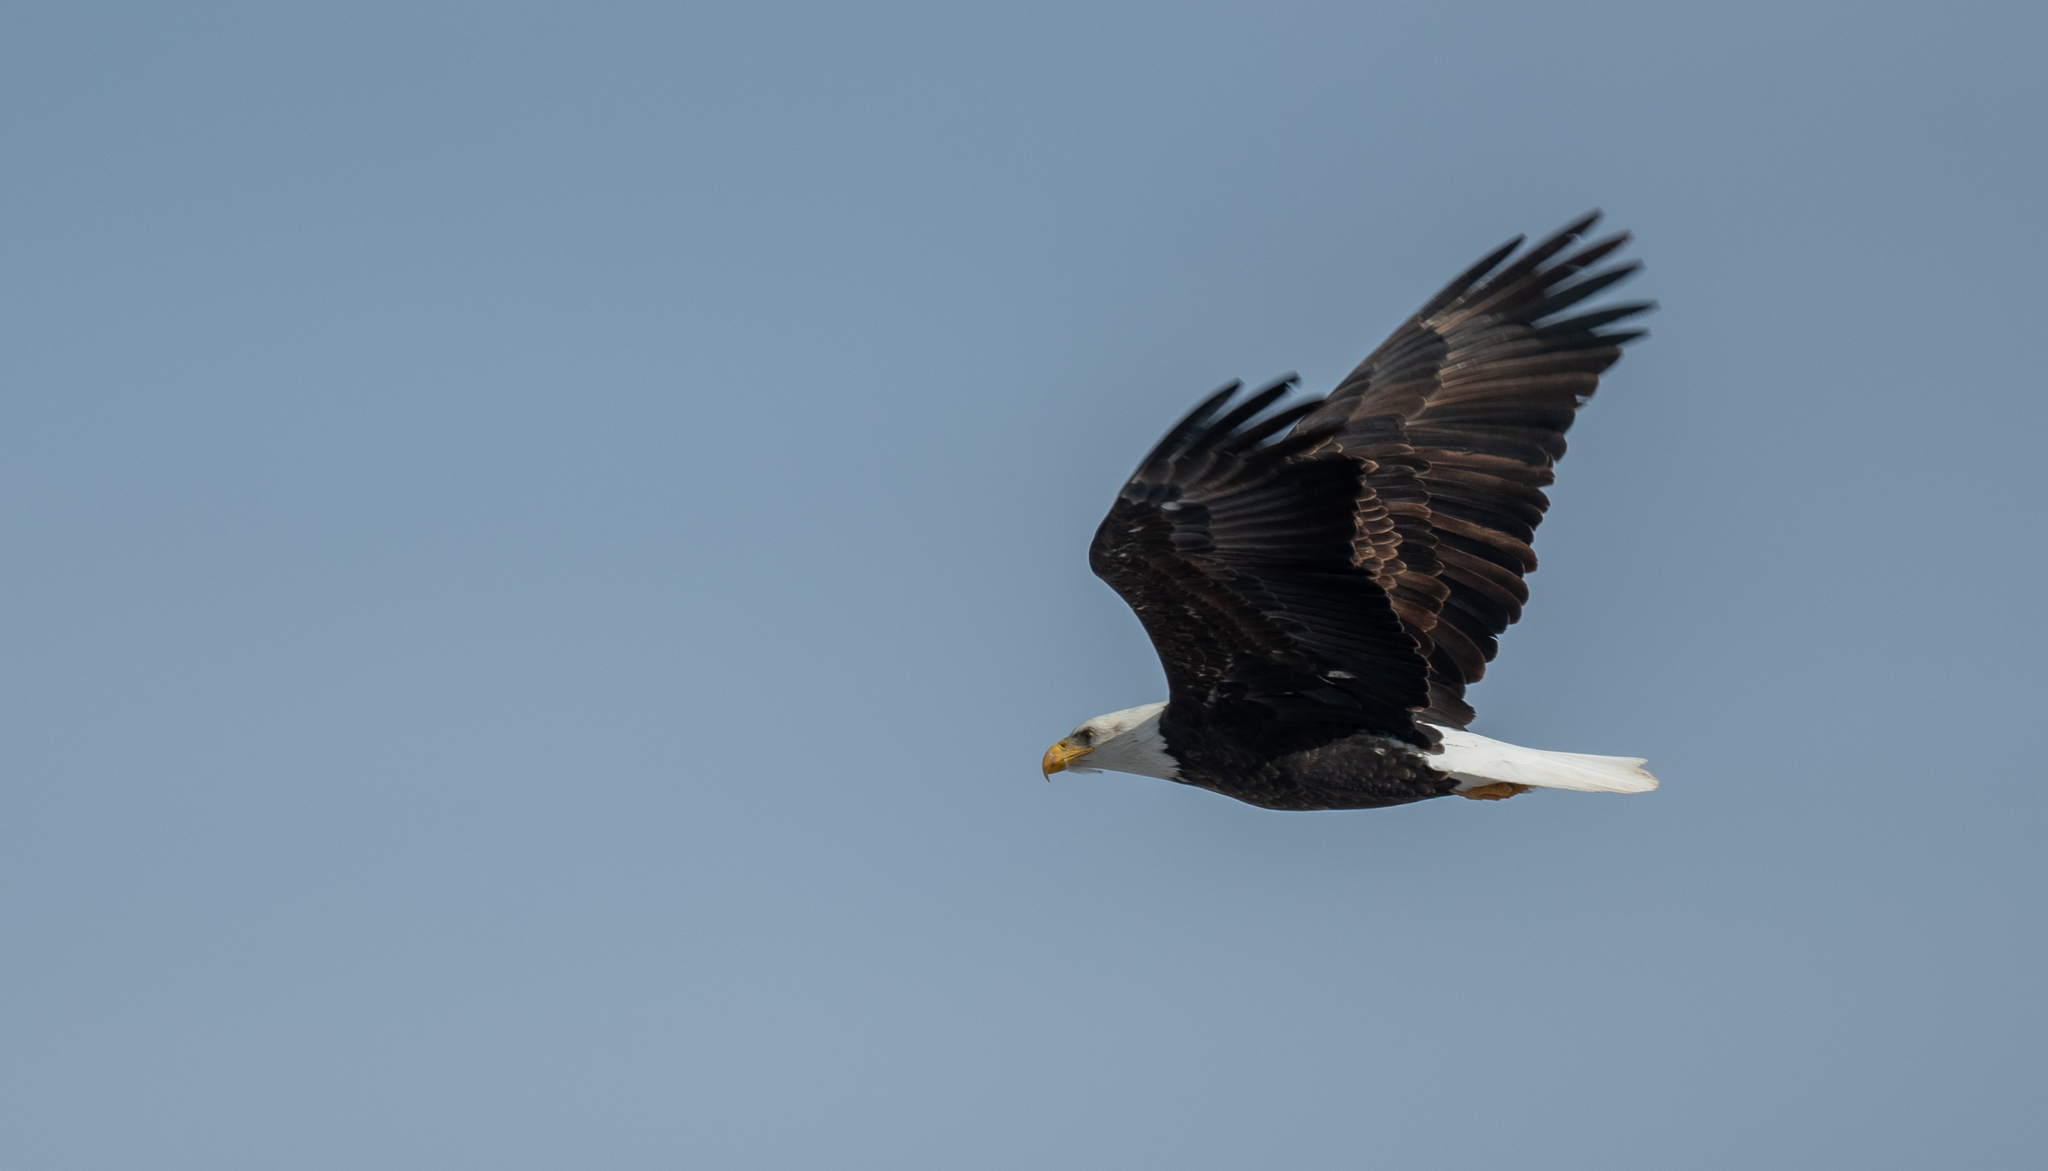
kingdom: Animalia
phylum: Chordata
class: Aves
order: Accipitriformes
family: Accipitridae
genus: Haliaeetus
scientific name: Haliaeetus leucocephalus
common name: Bald eagle
